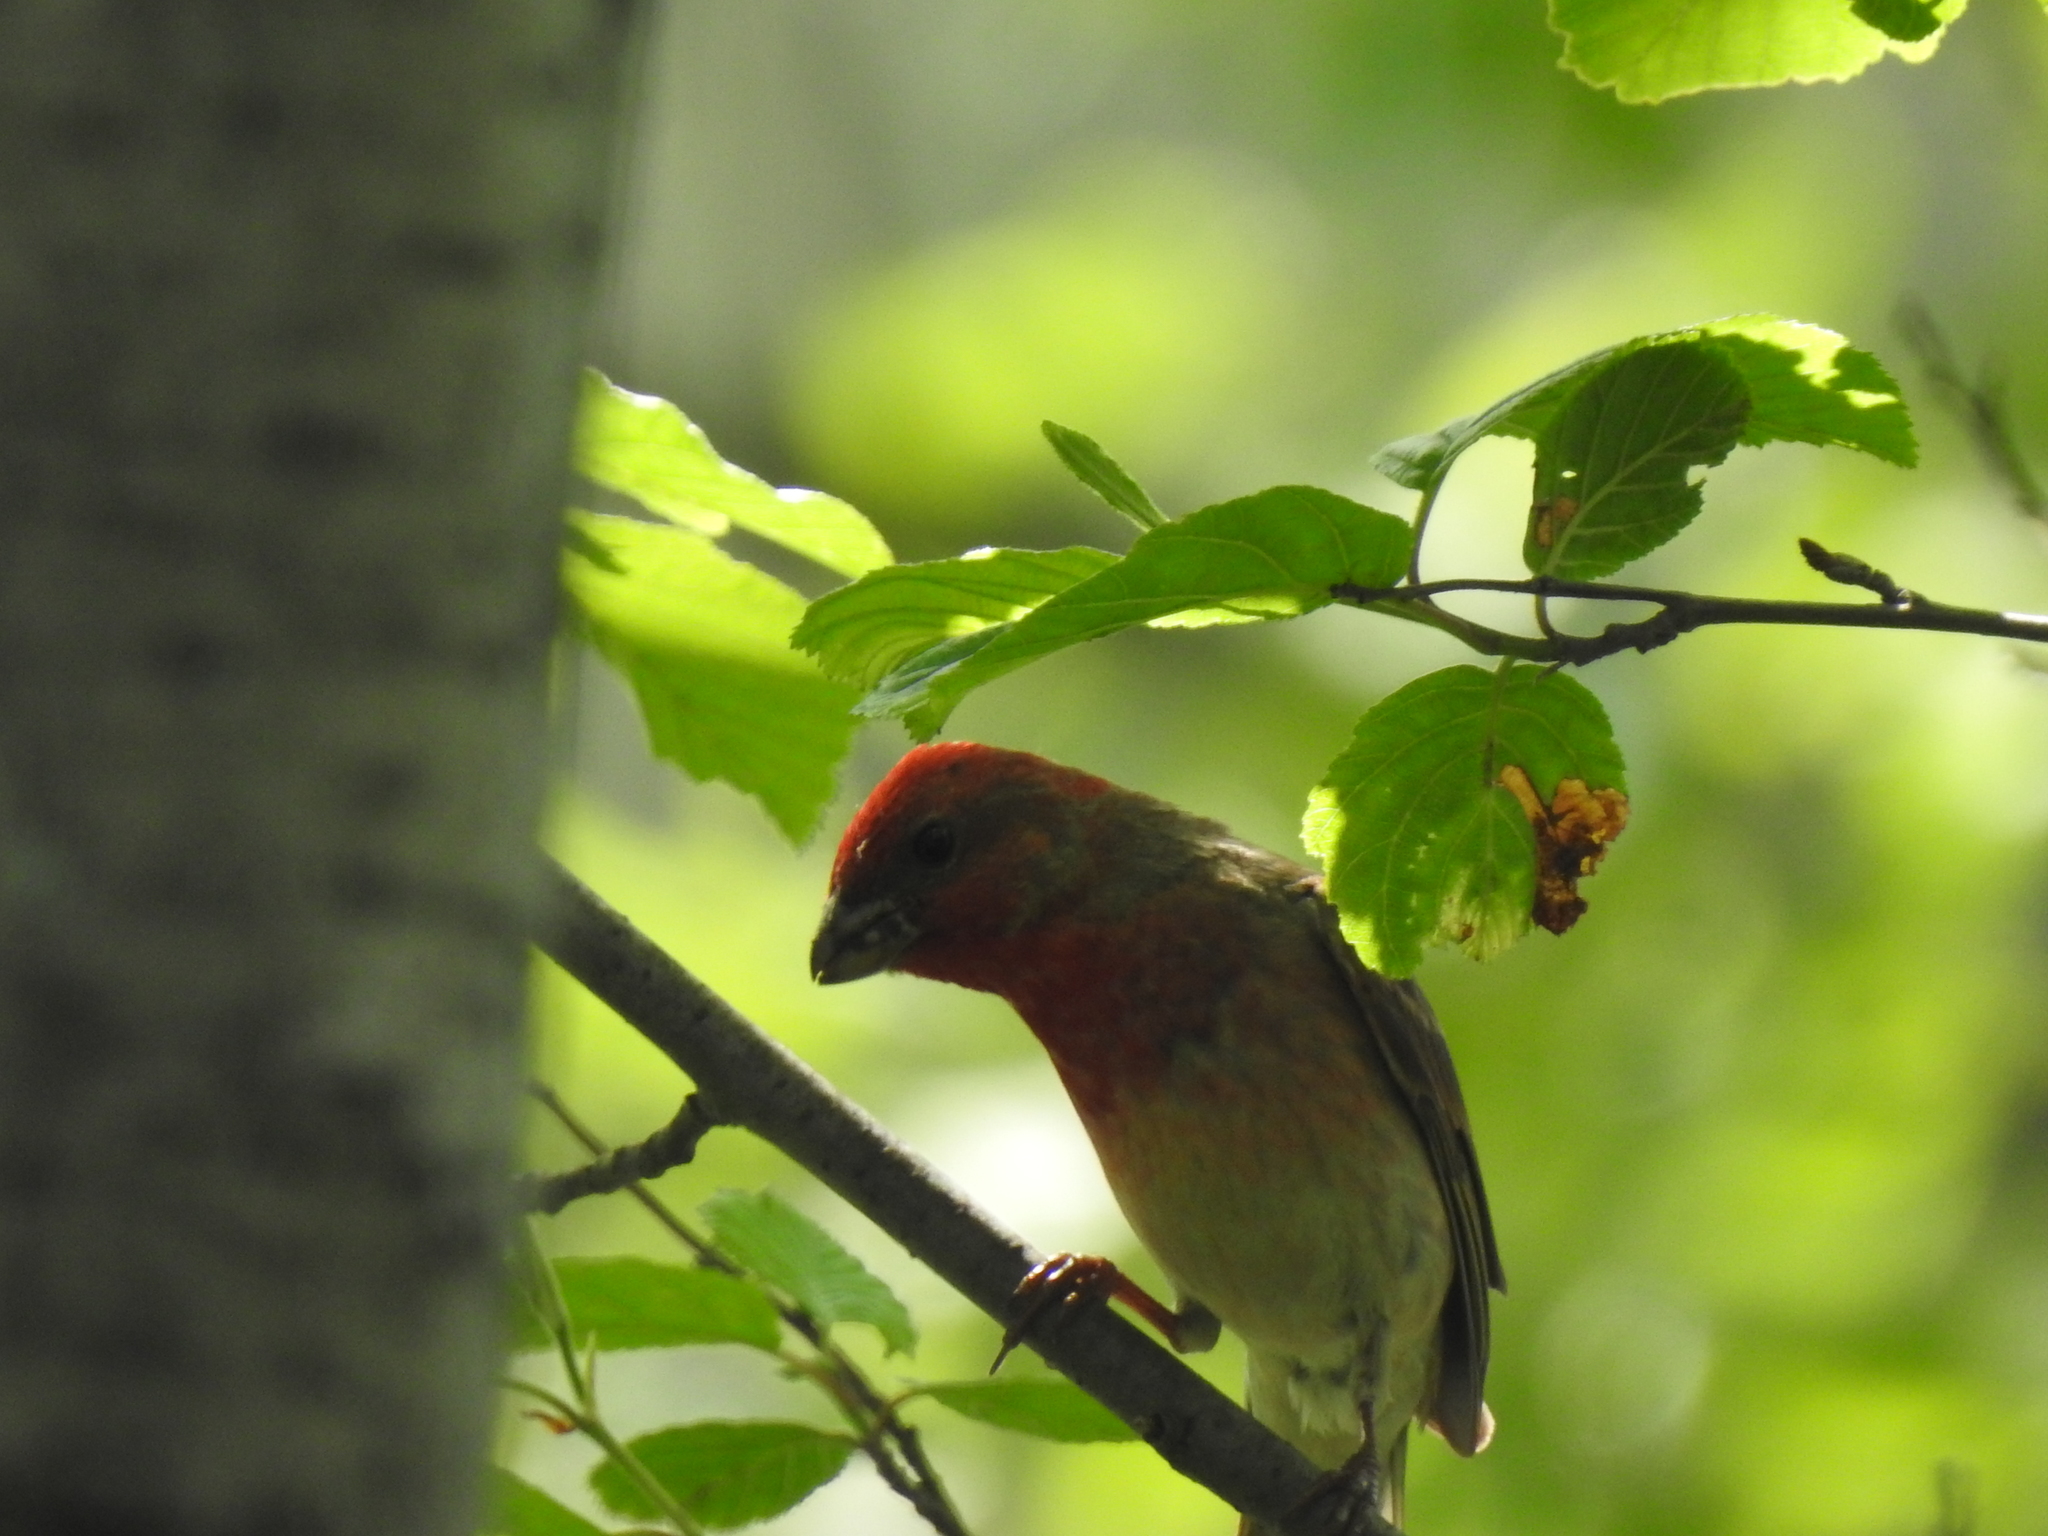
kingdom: Animalia
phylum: Chordata
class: Aves
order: Passeriformes
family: Fringillidae
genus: Carpodacus
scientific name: Carpodacus erythrinus
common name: Common rosefinch
